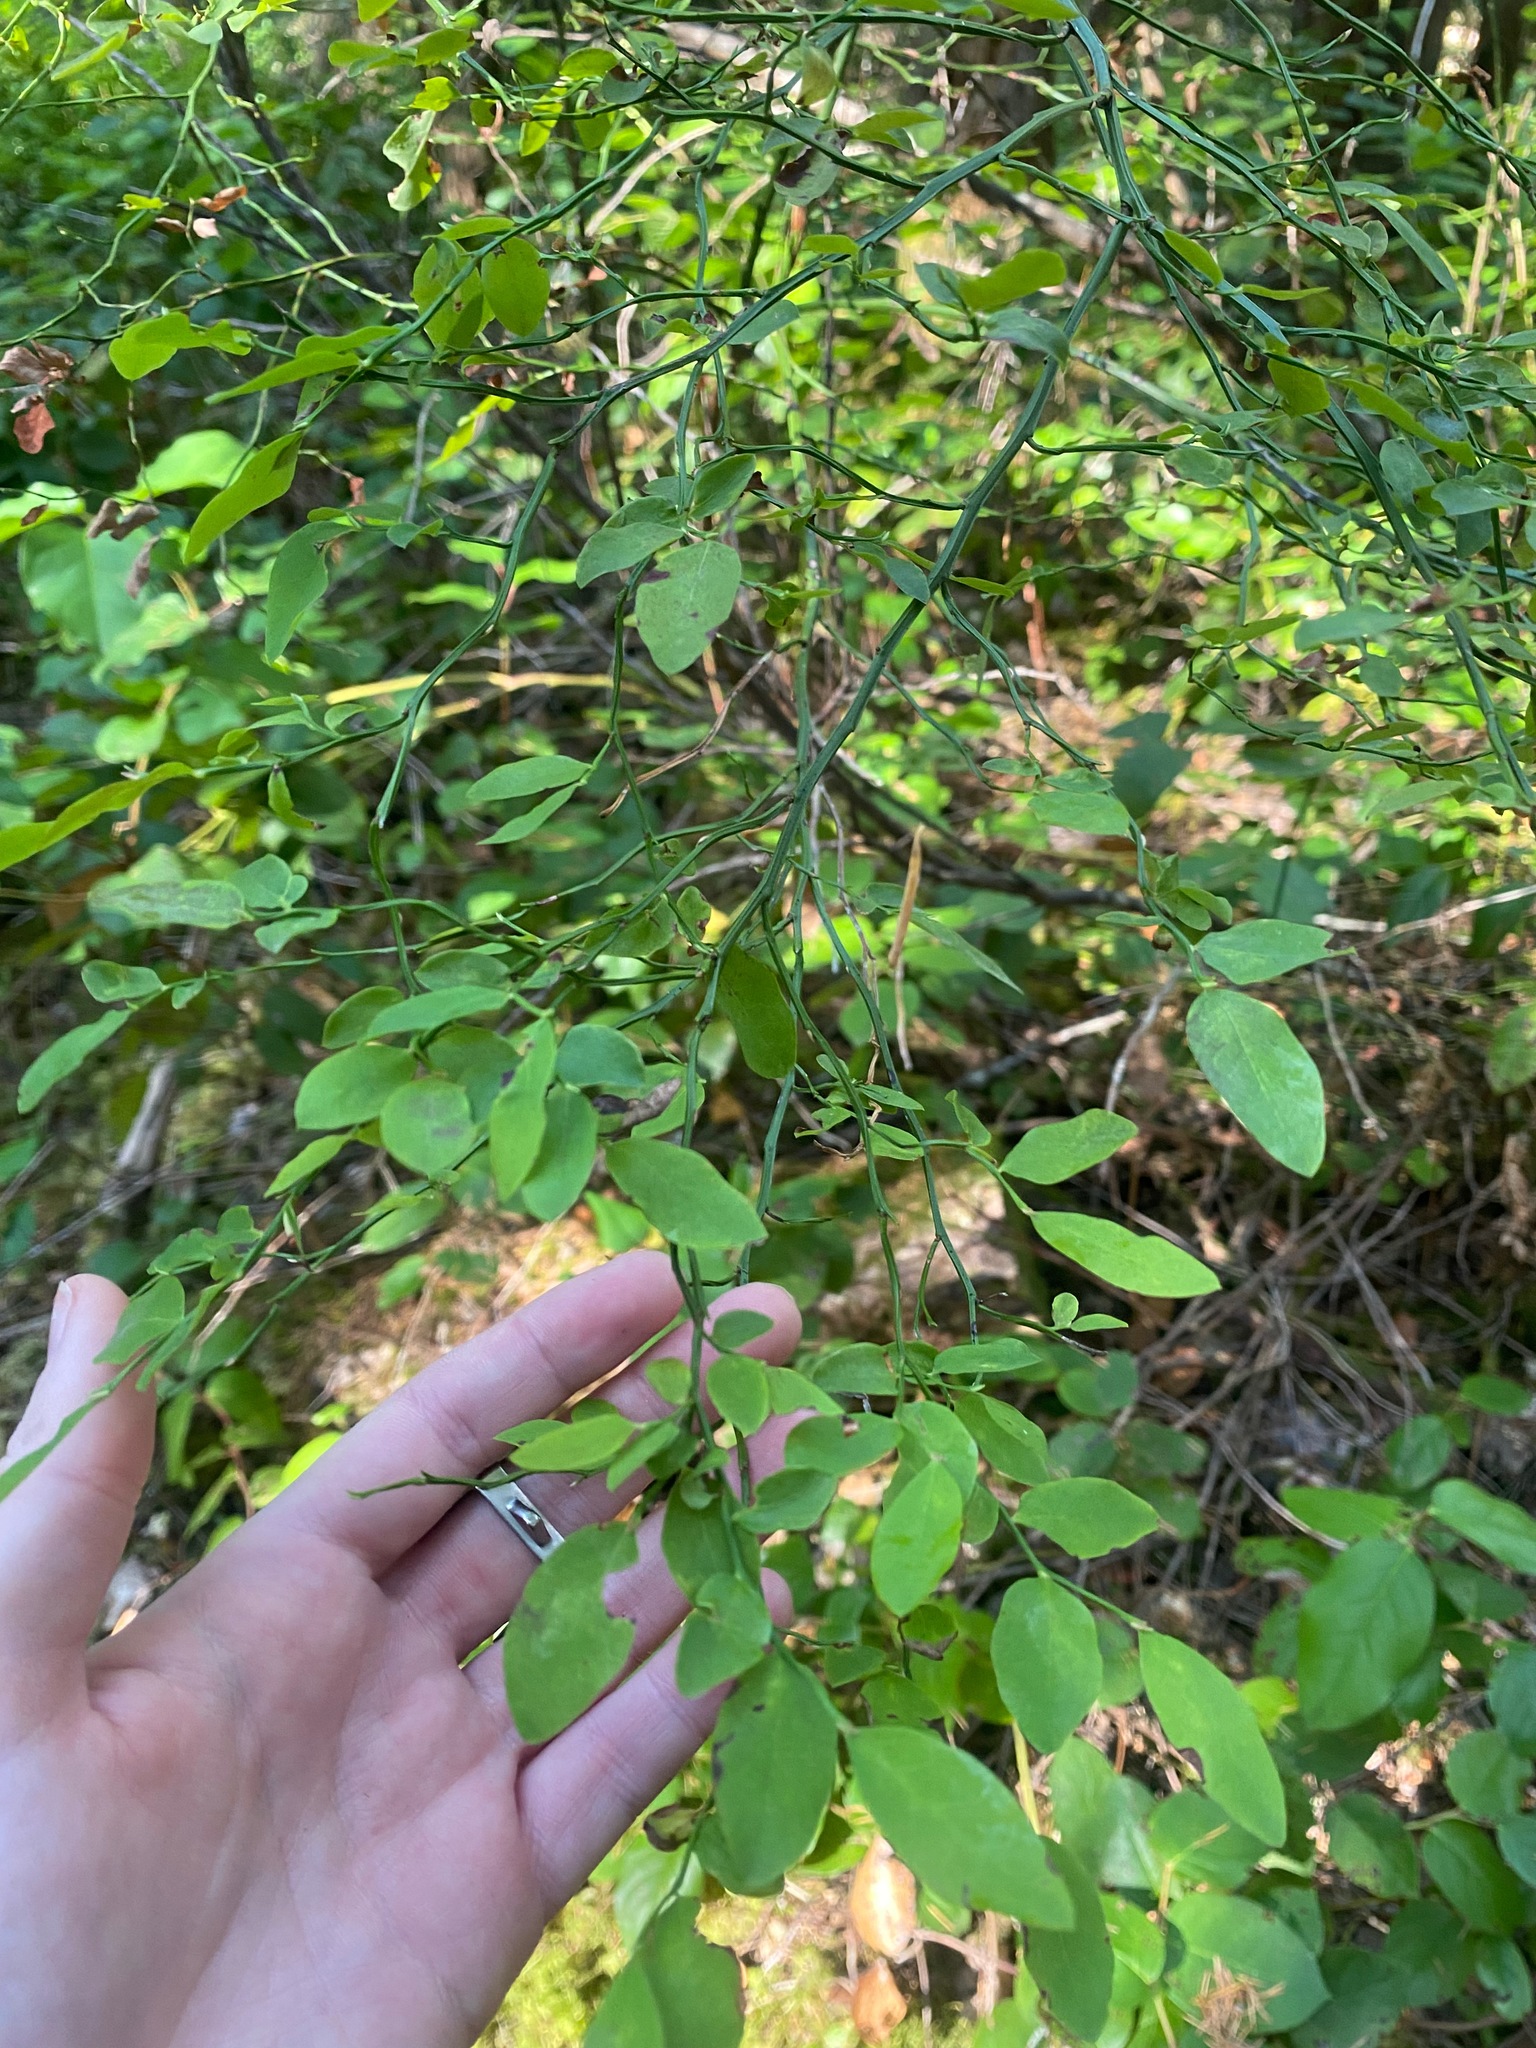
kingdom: Plantae
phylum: Tracheophyta
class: Magnoliopsida
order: Ericales
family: Ericaceae
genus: Vaccinium
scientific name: Vaccinium parvifolium
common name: Red-huckleberry
